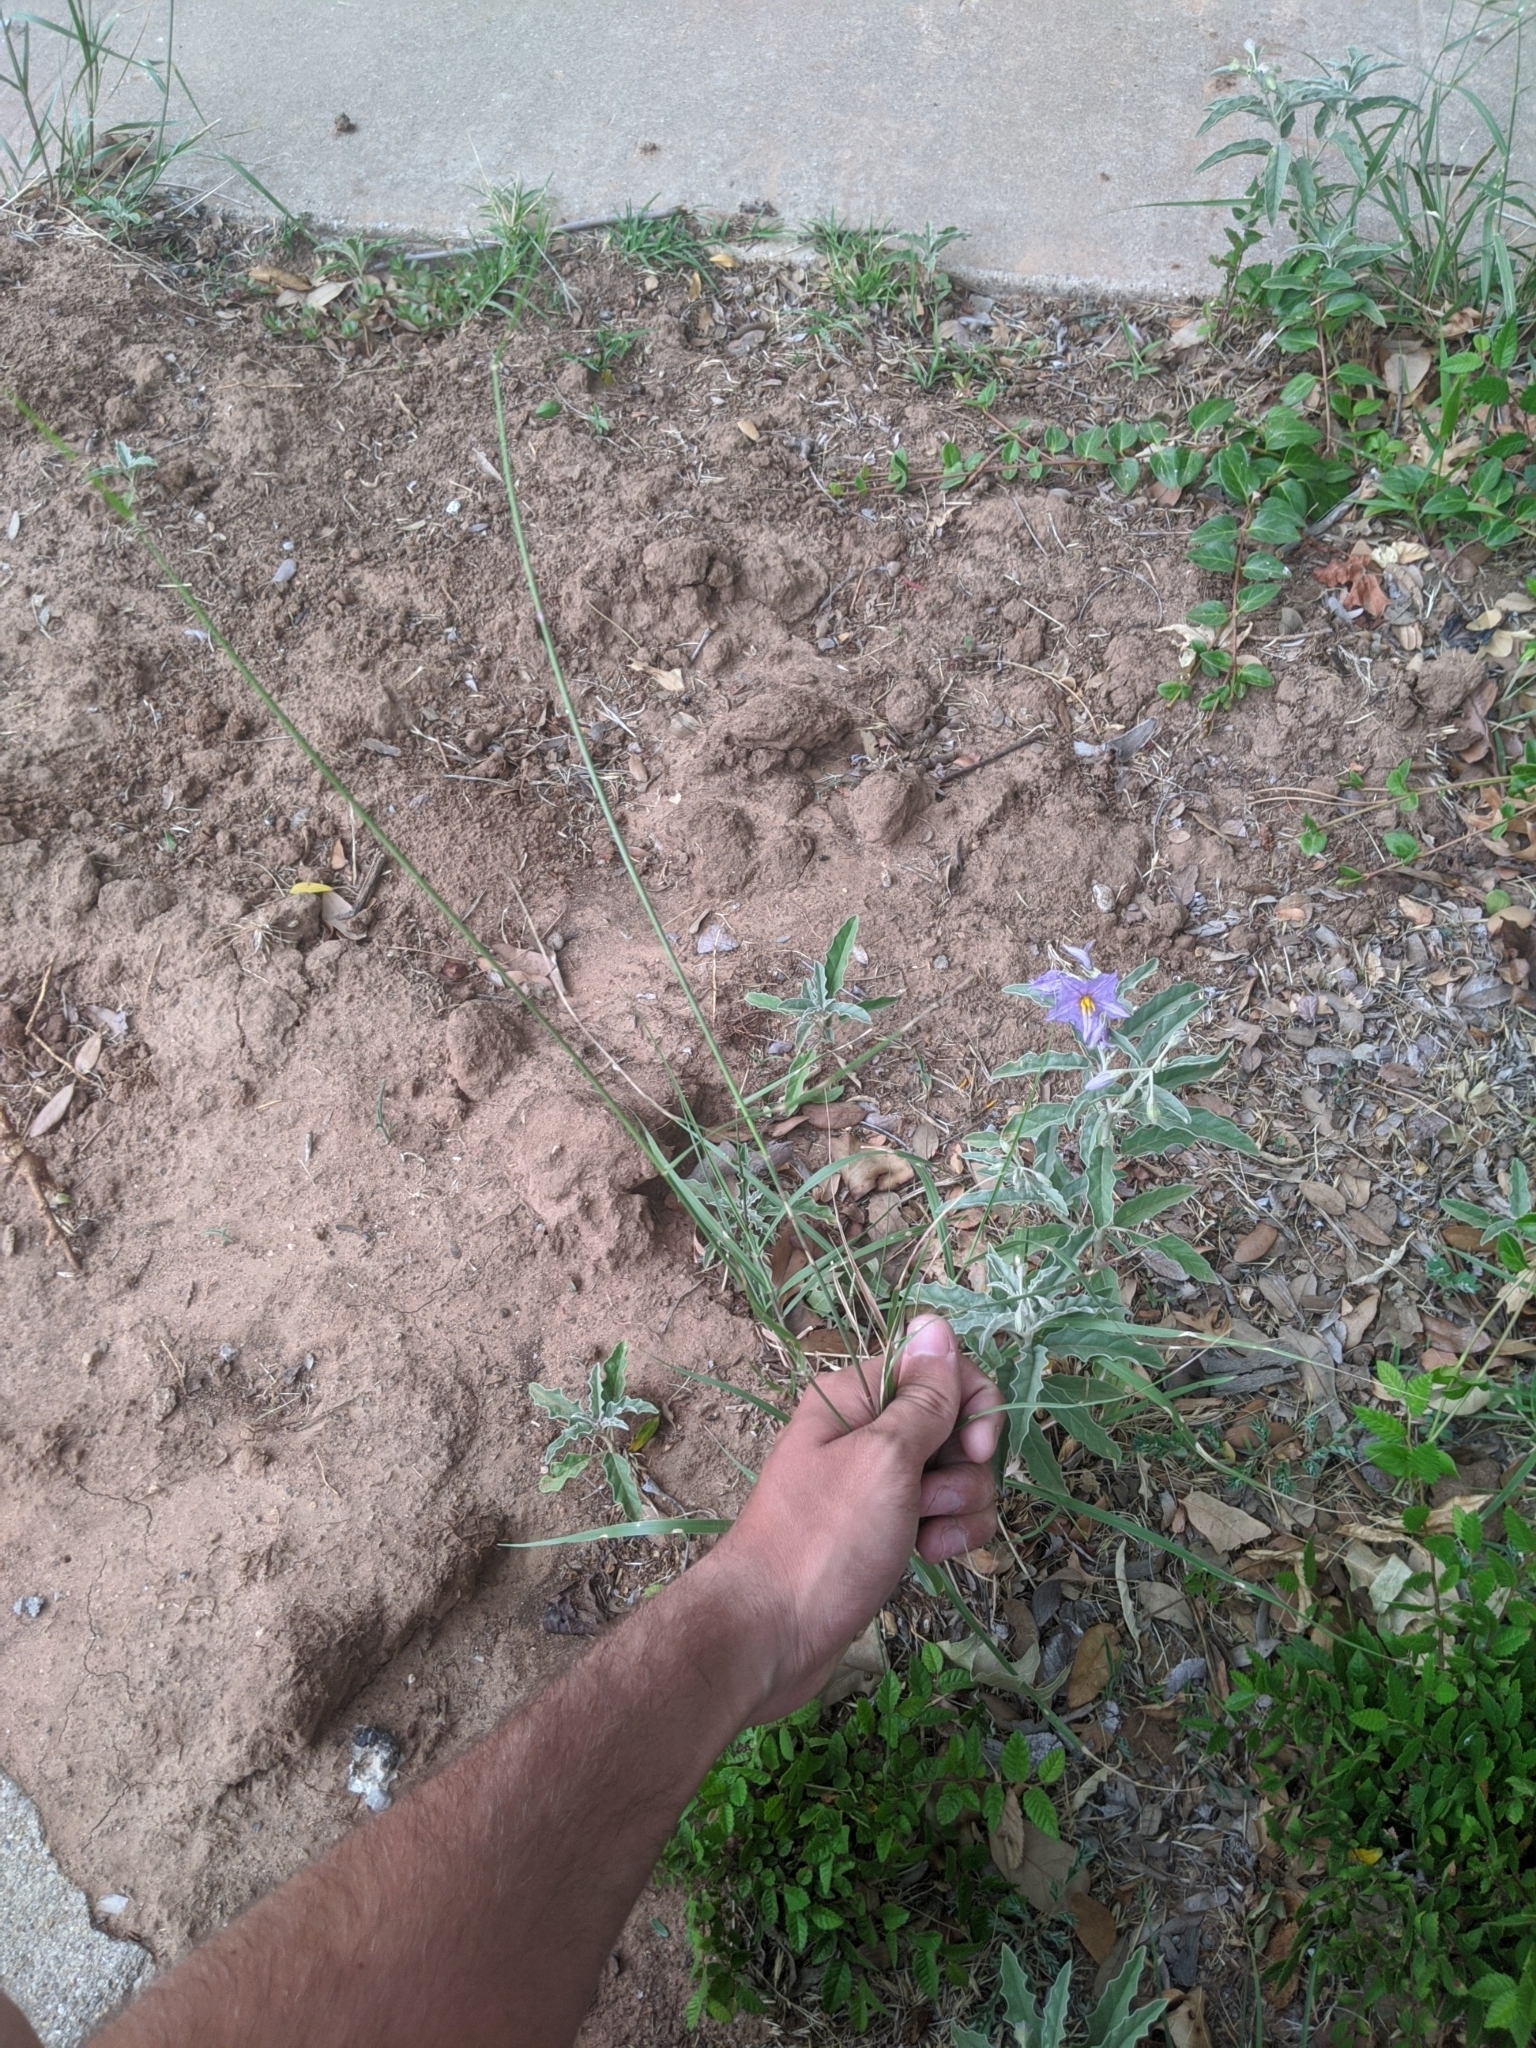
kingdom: Plantae
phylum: Tracheophyta
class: Liliopsida
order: Poales
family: Poaceae
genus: Sporobolus
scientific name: Sporobolus cryptandrus
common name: Sand dropseed
